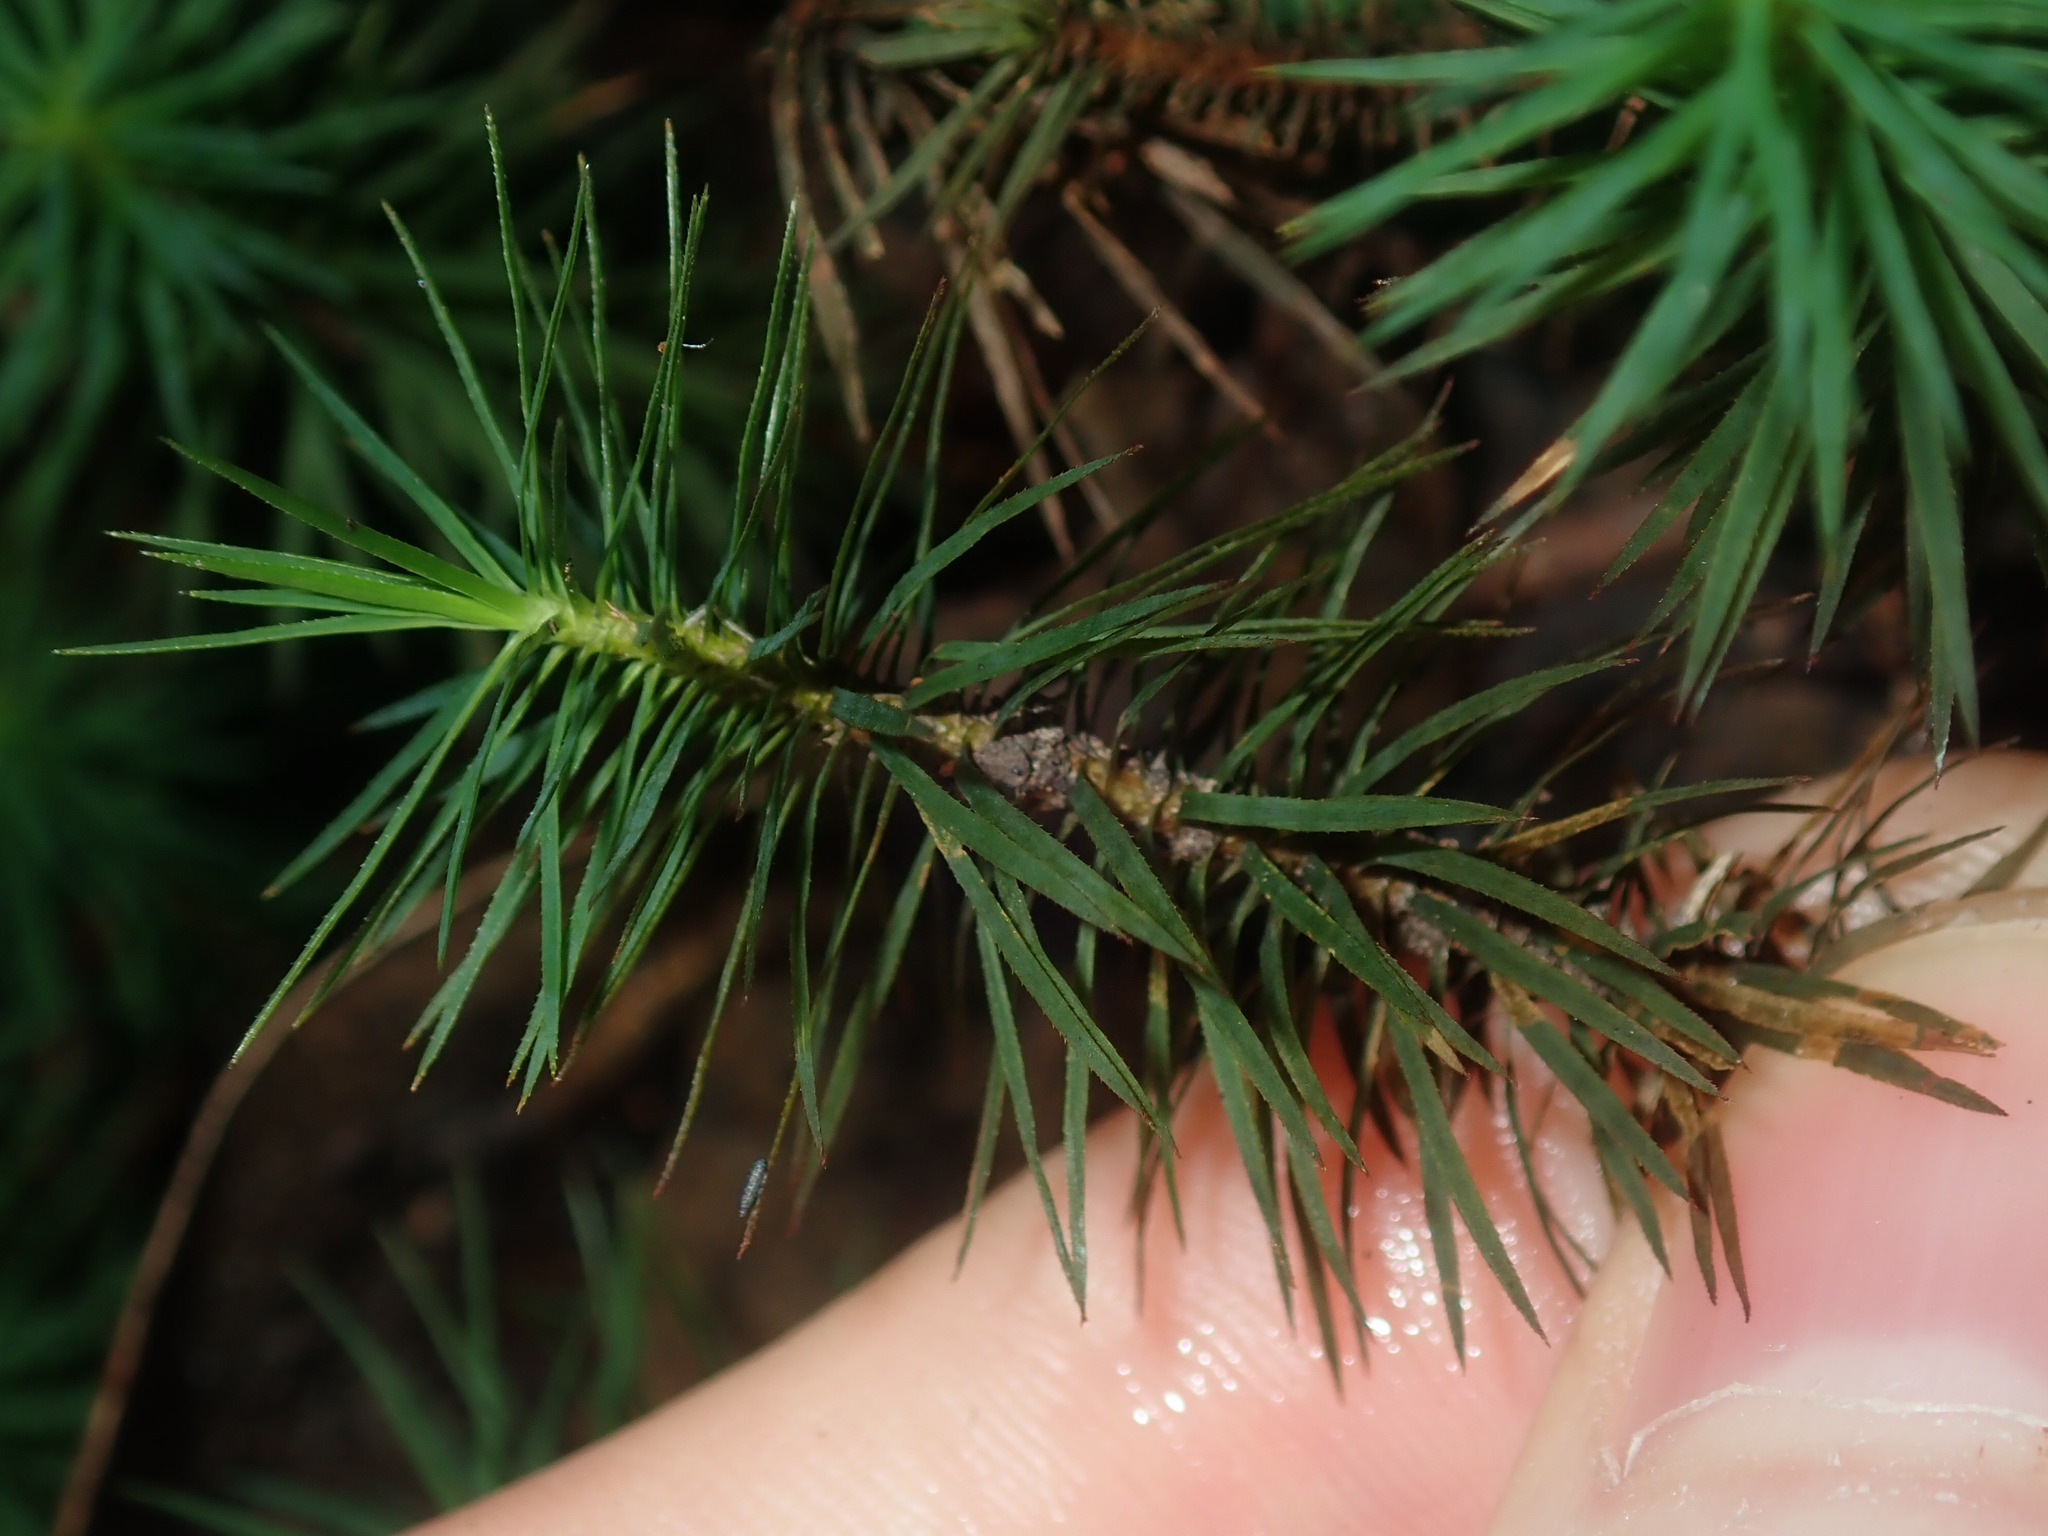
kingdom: Plantae
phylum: Bryophyta
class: Polytrichopsida
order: Polytrichales
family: Polytrichaceae
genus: Dawsonia
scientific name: Dawsonia superba
